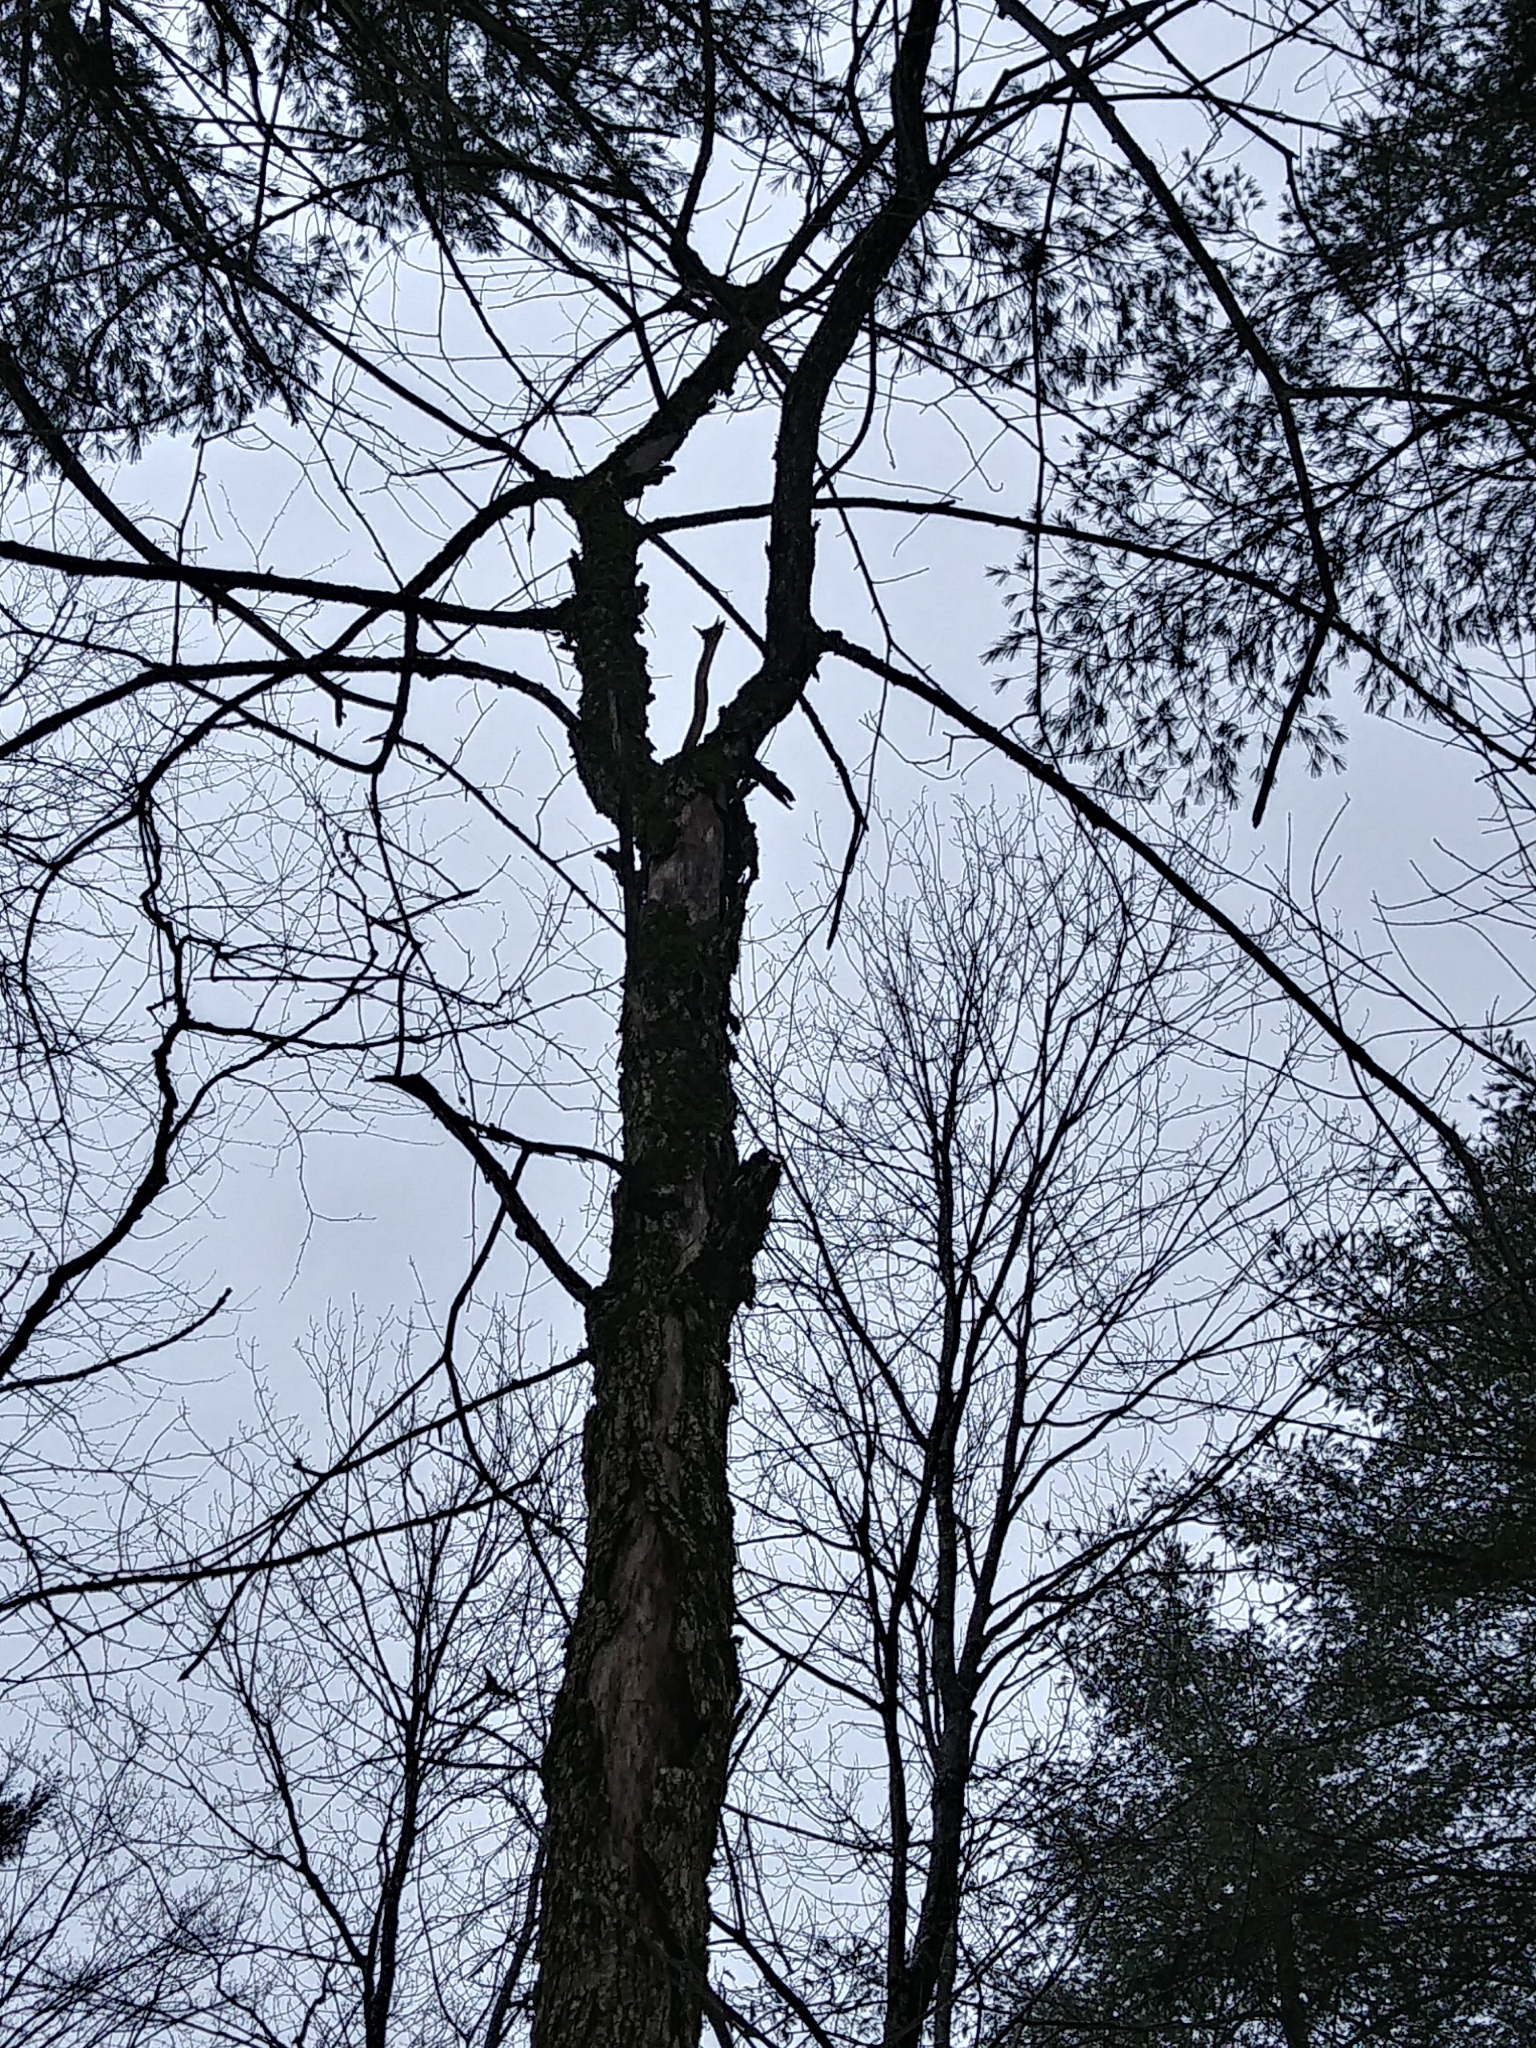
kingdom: Plantae
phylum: Tracheophyta
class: Magnoliopsida
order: Rosales
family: Ulmaceae
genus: Ulmus
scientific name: Ulmus americana
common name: American elm
